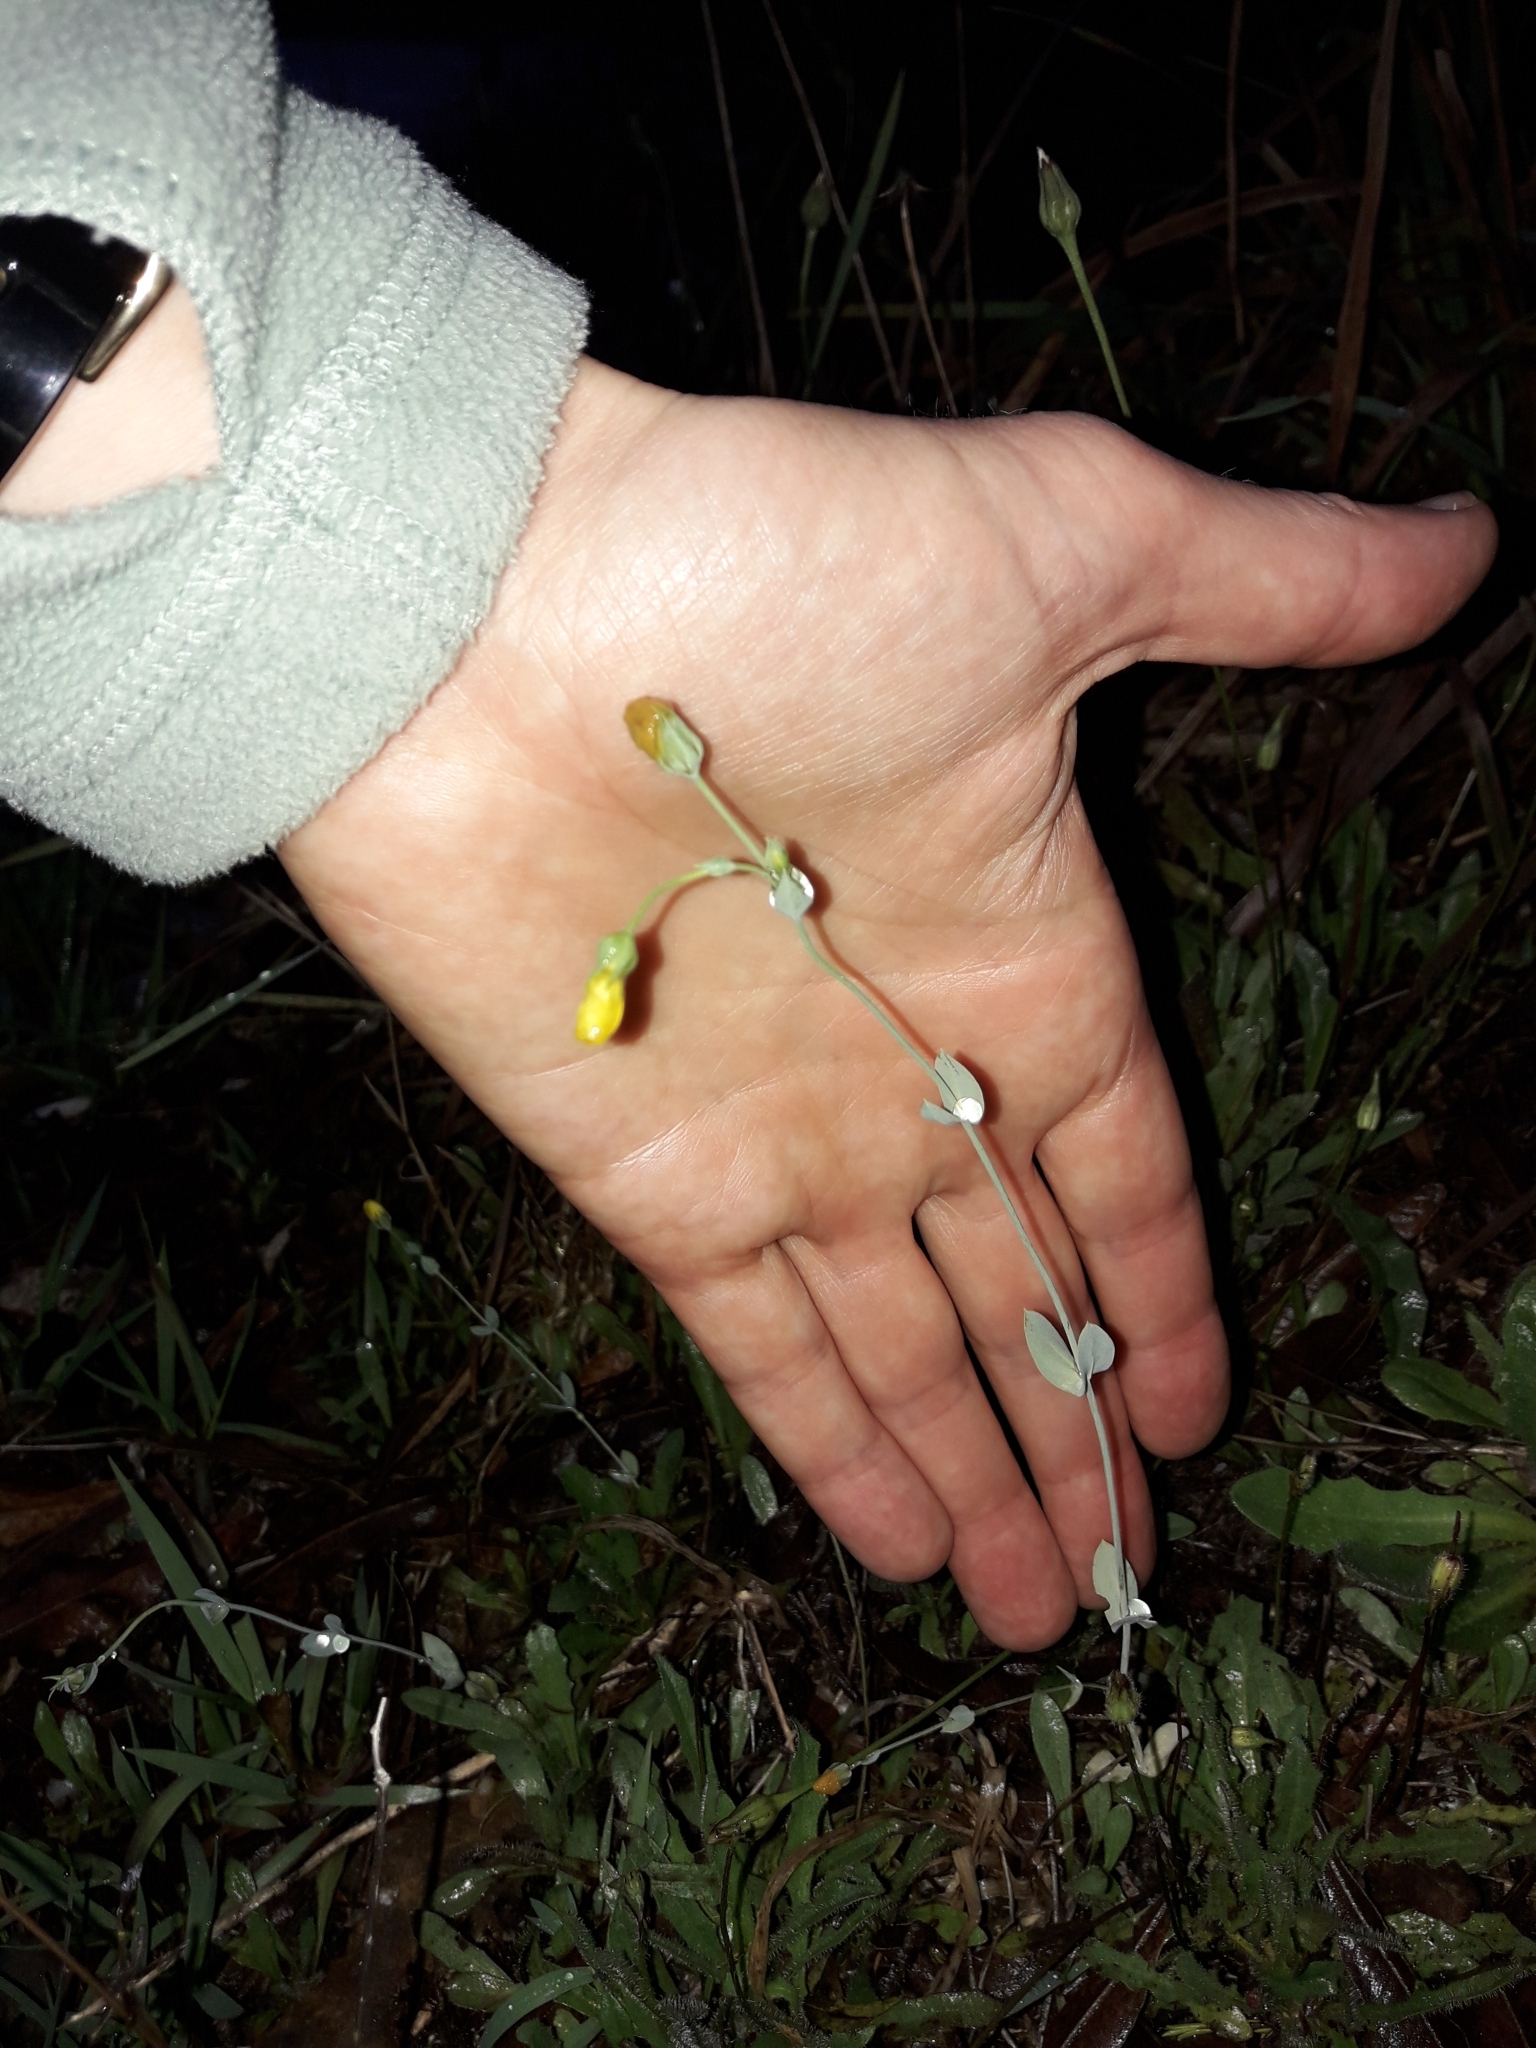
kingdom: Plantae
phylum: Tracheophyta
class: Magnoliopsida
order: Gentianales
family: Gentianaceae
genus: Blackstonia
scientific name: Blackstonia perfoliata
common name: Yellow-wort
